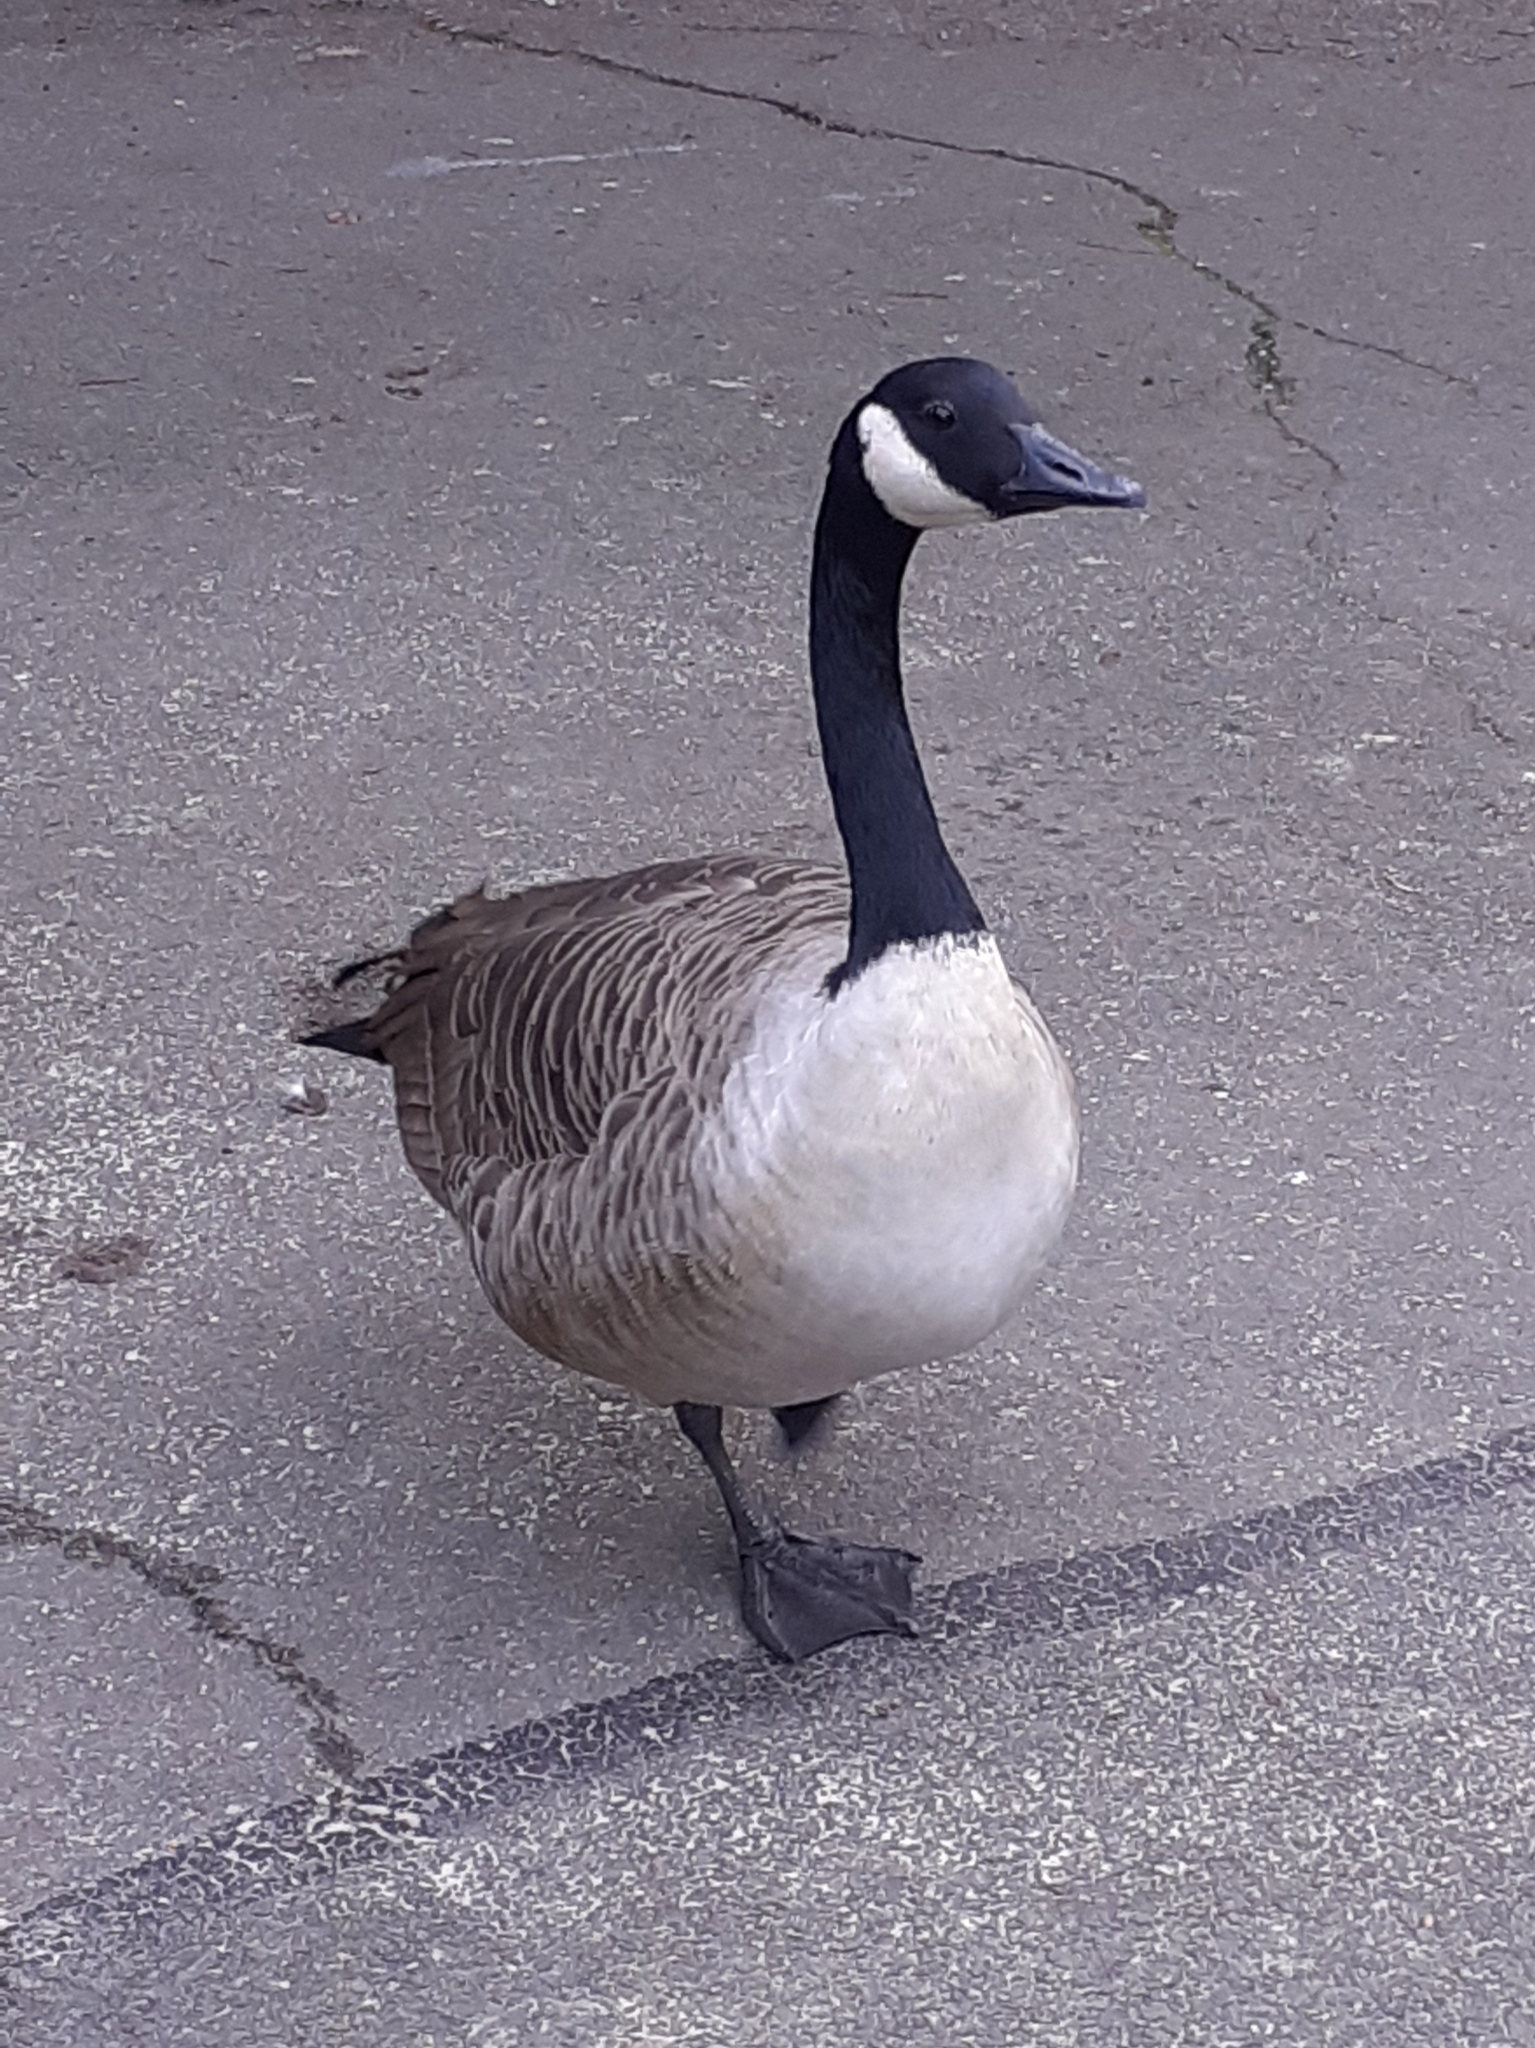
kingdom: Animalia
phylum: Chordata
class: Aves
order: Anseriformes
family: Anatidae
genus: Branta
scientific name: Branta canadensis
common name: Canada goose
